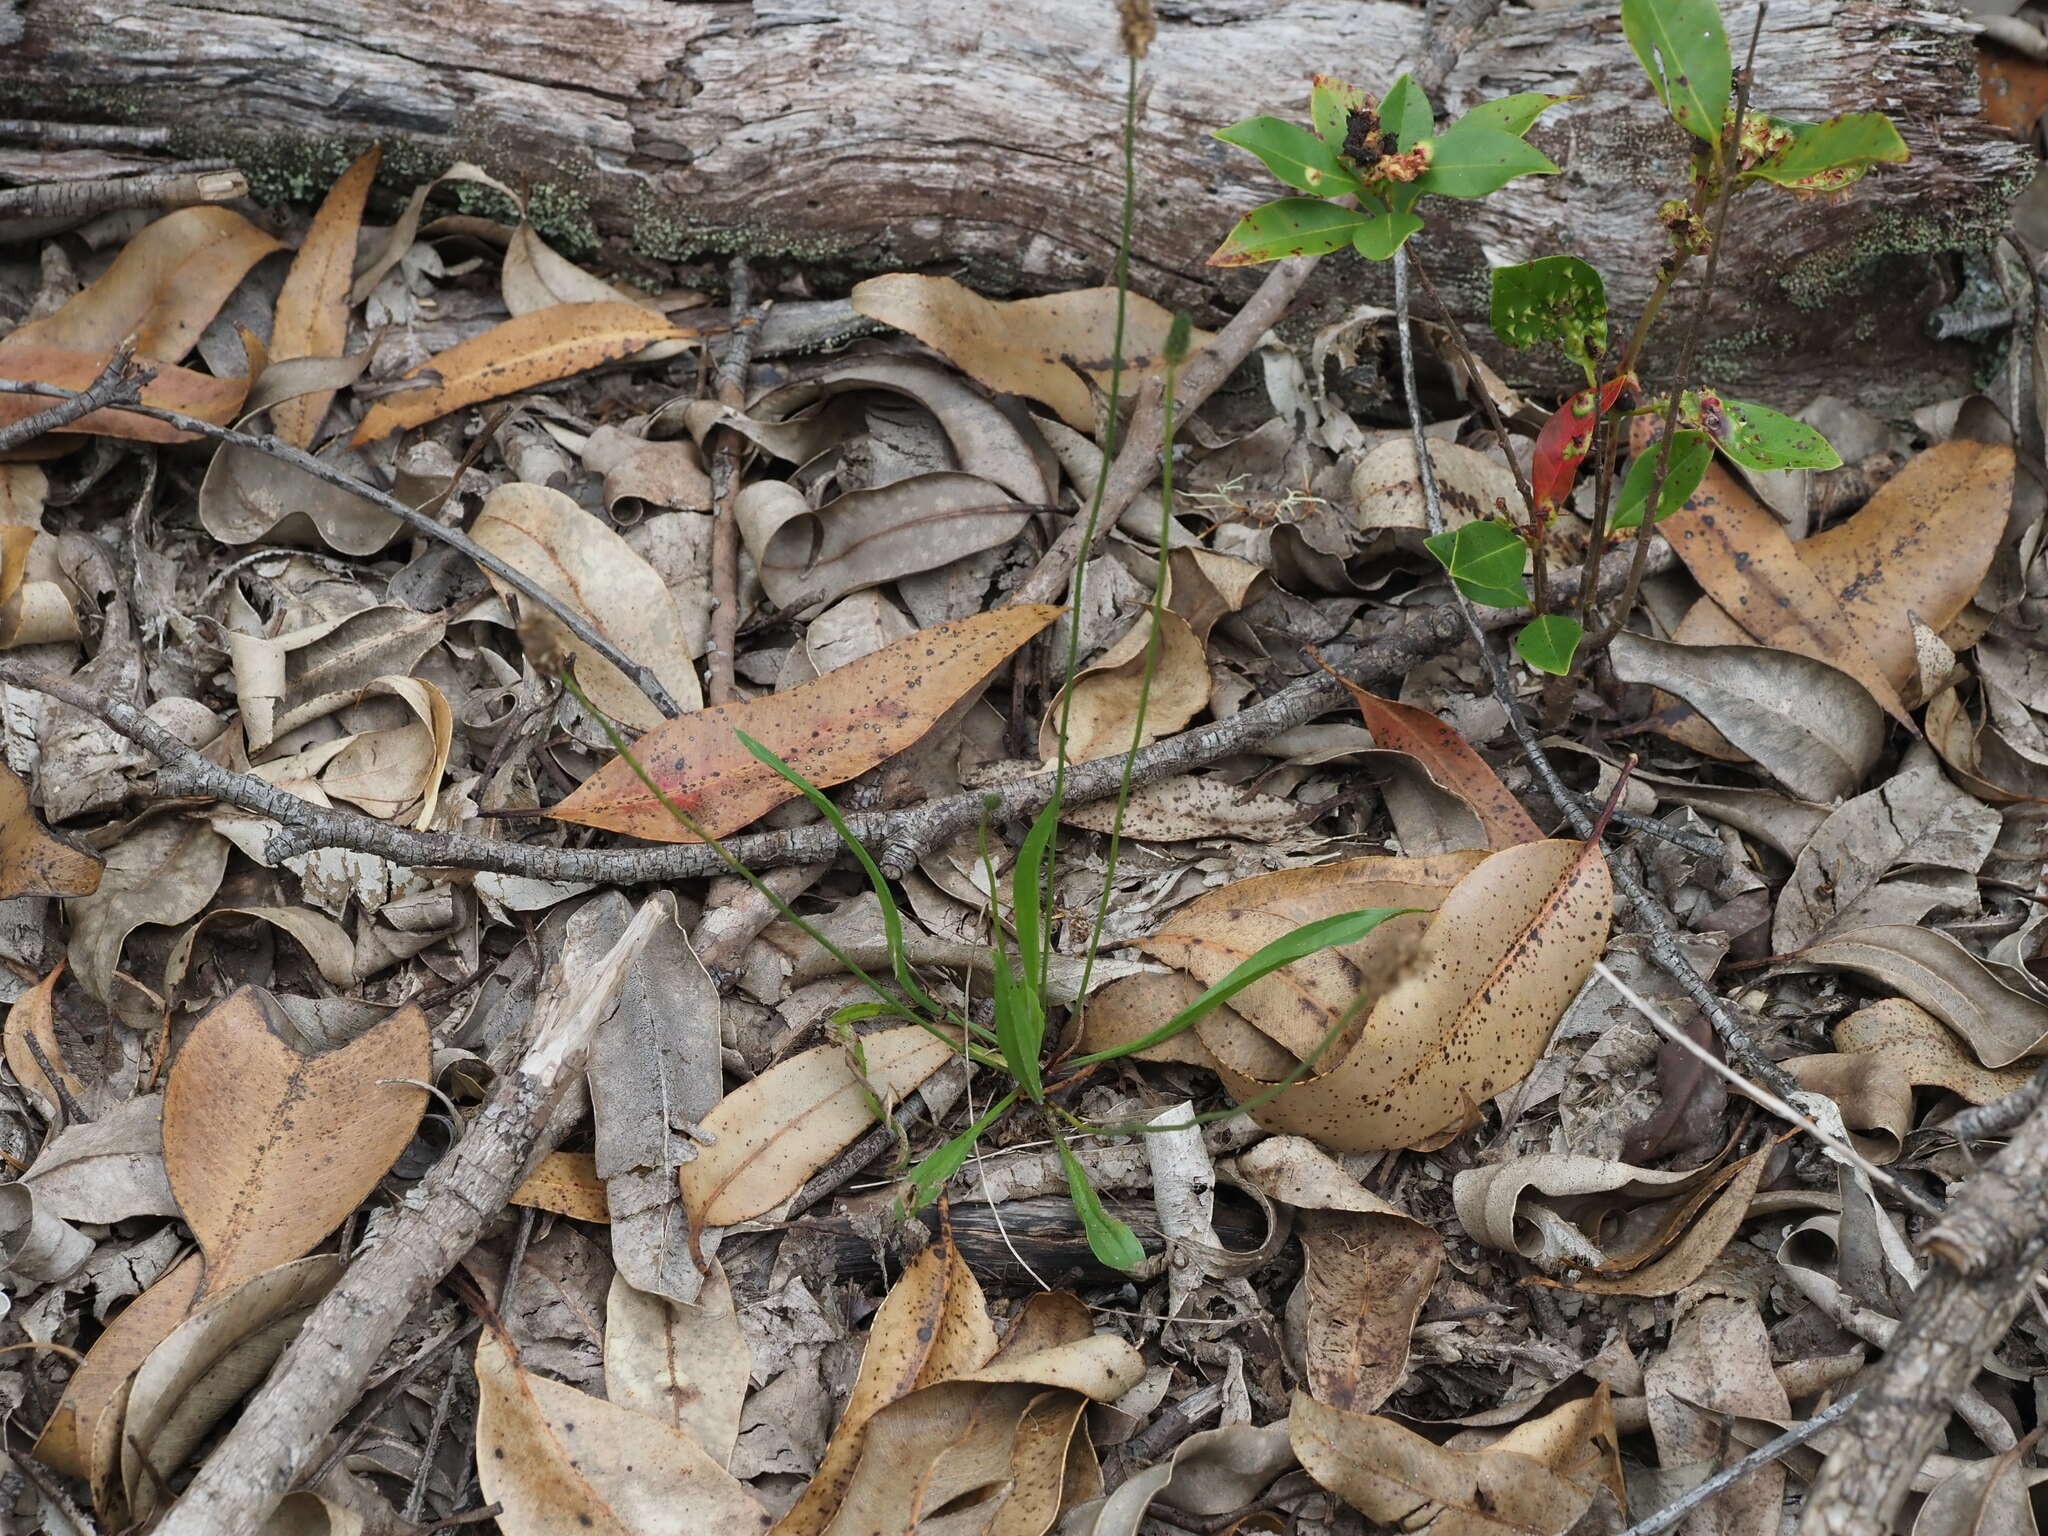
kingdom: Plantae
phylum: Tracheophyta
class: Magnoliopsida
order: Lamiales
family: Plantaginaceae
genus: Plantago
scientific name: Plantago lanceolata
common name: Ribwort plantain
